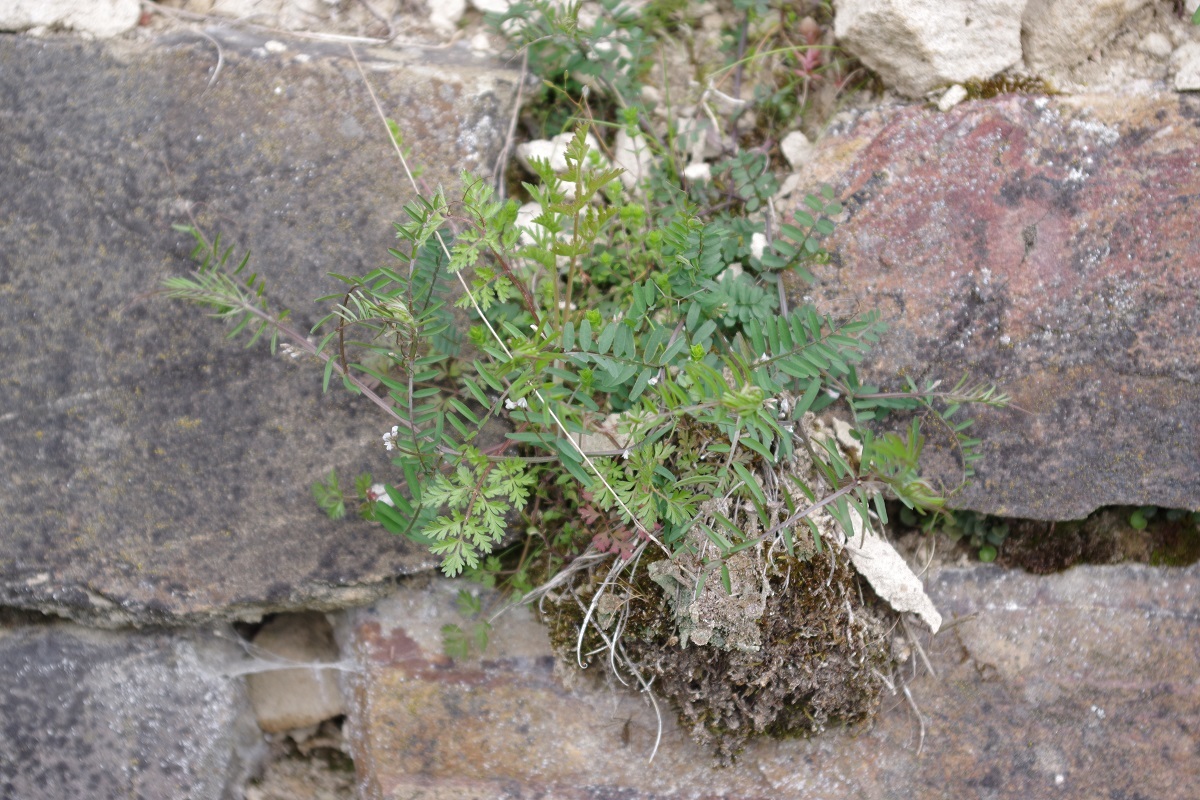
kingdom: Plantae
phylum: Tracheophyta
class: Magnoliopsida
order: Fabales
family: Fabaceae
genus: Vicia
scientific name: Vicia hirsuta
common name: Tiny vetch
